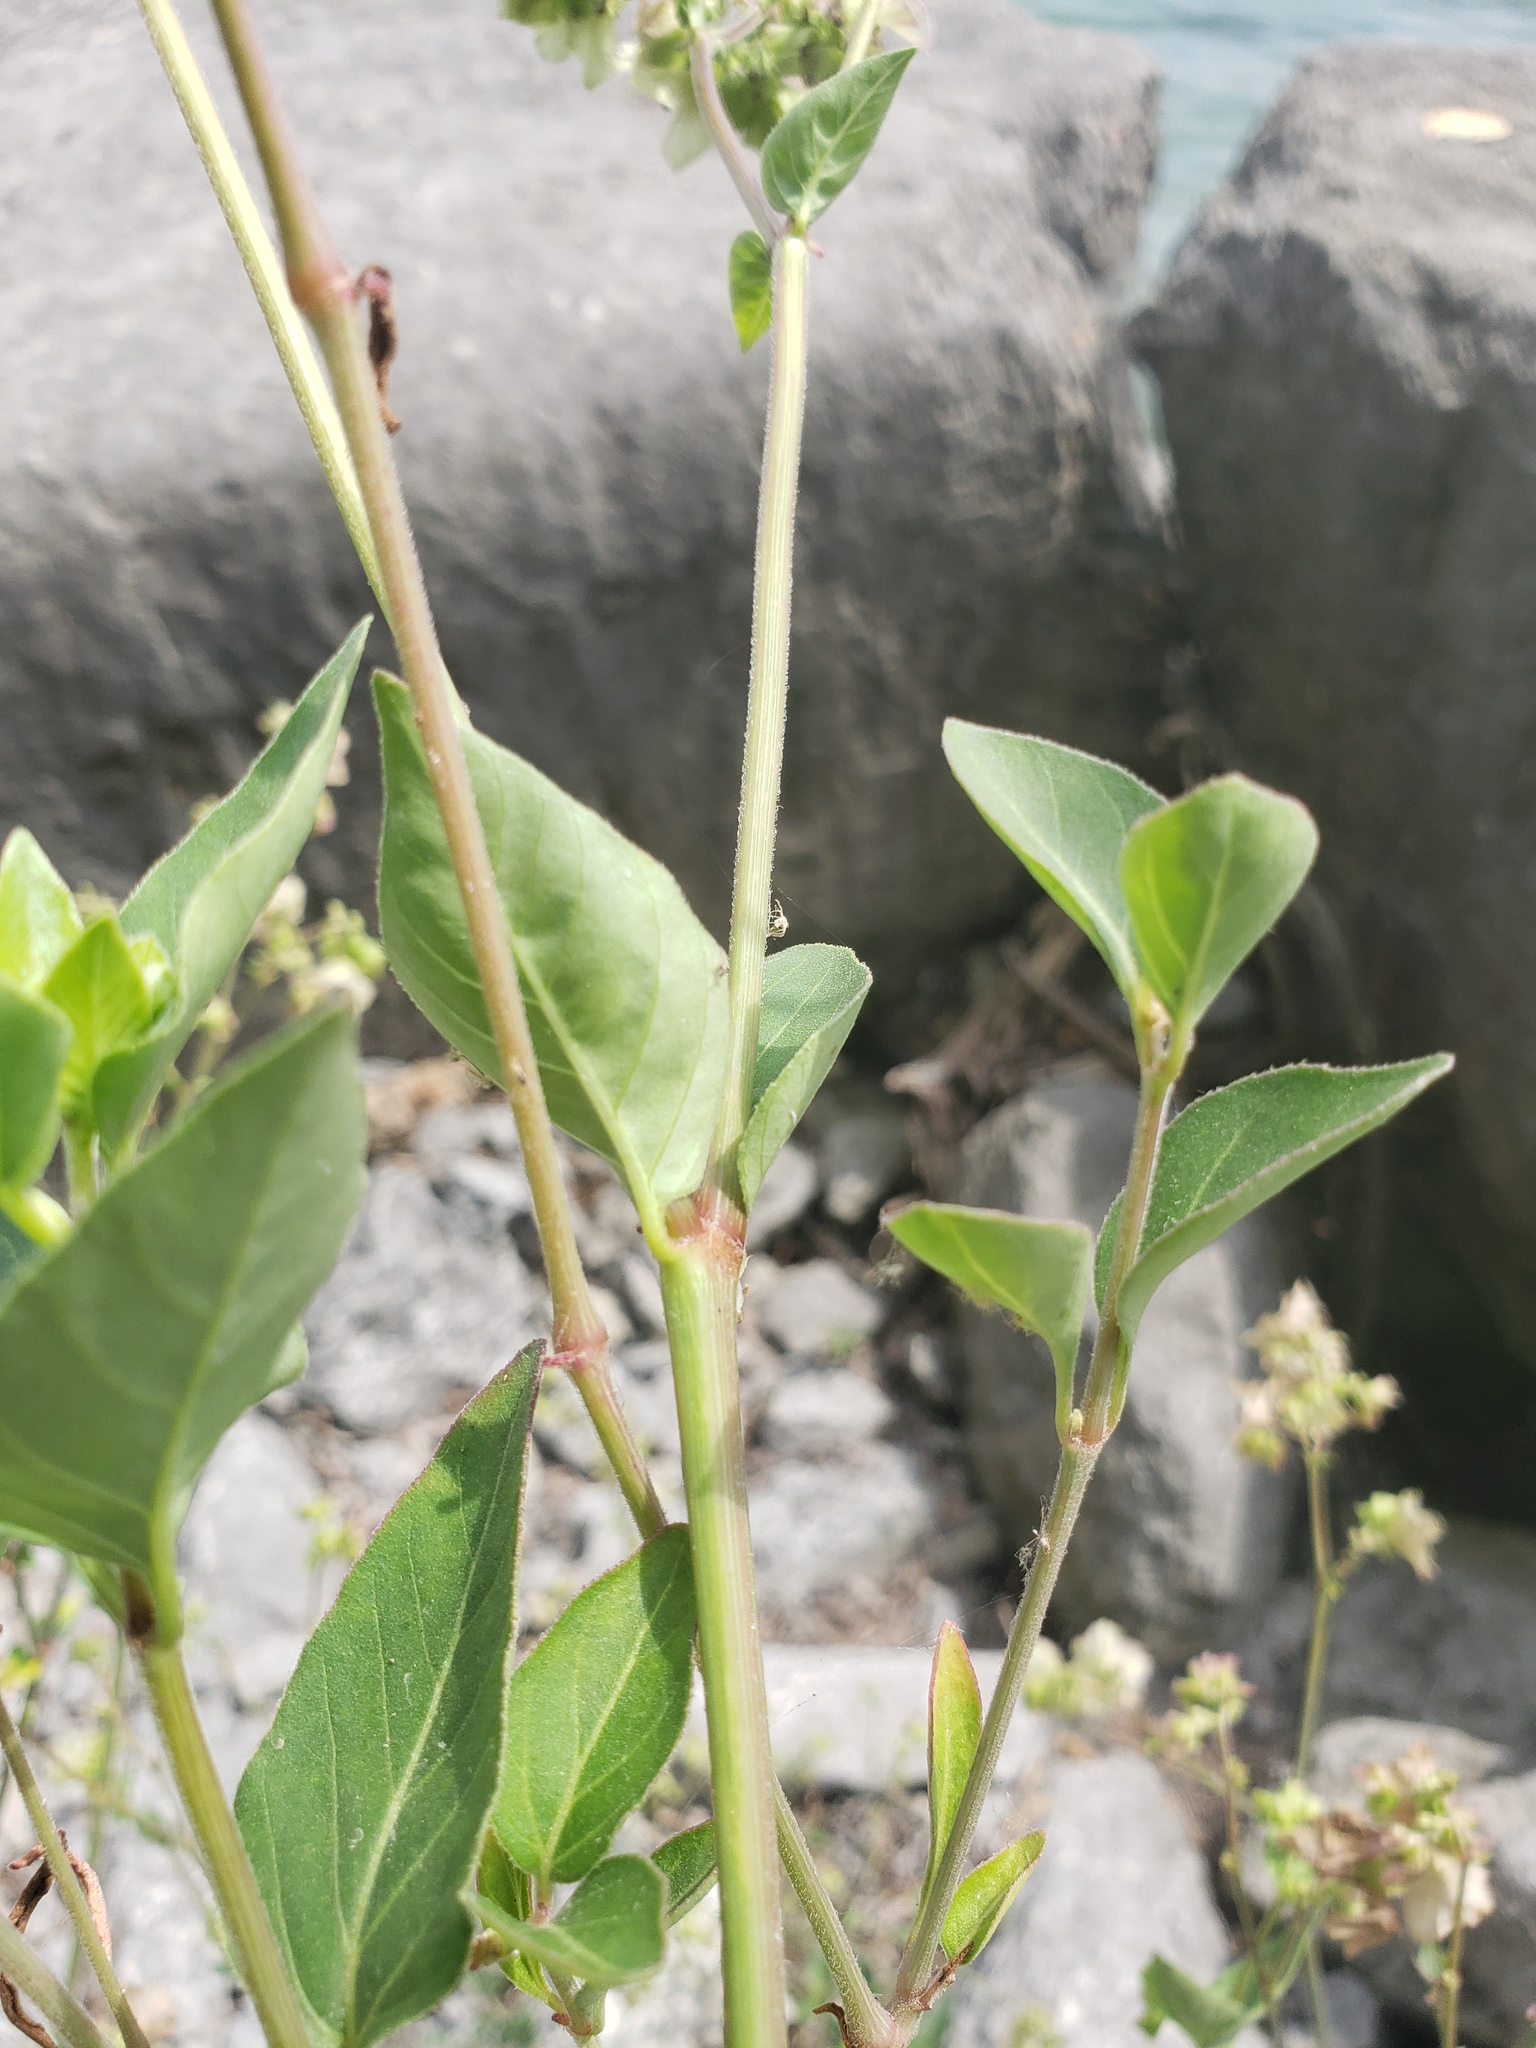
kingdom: Plantae
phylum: Tracheophyta
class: Magnoliopsida
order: Caryophyllales
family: Nyctaginaceae
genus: Mirabilis
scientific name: Mirabilis nyctaginea
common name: Umbrella wort
